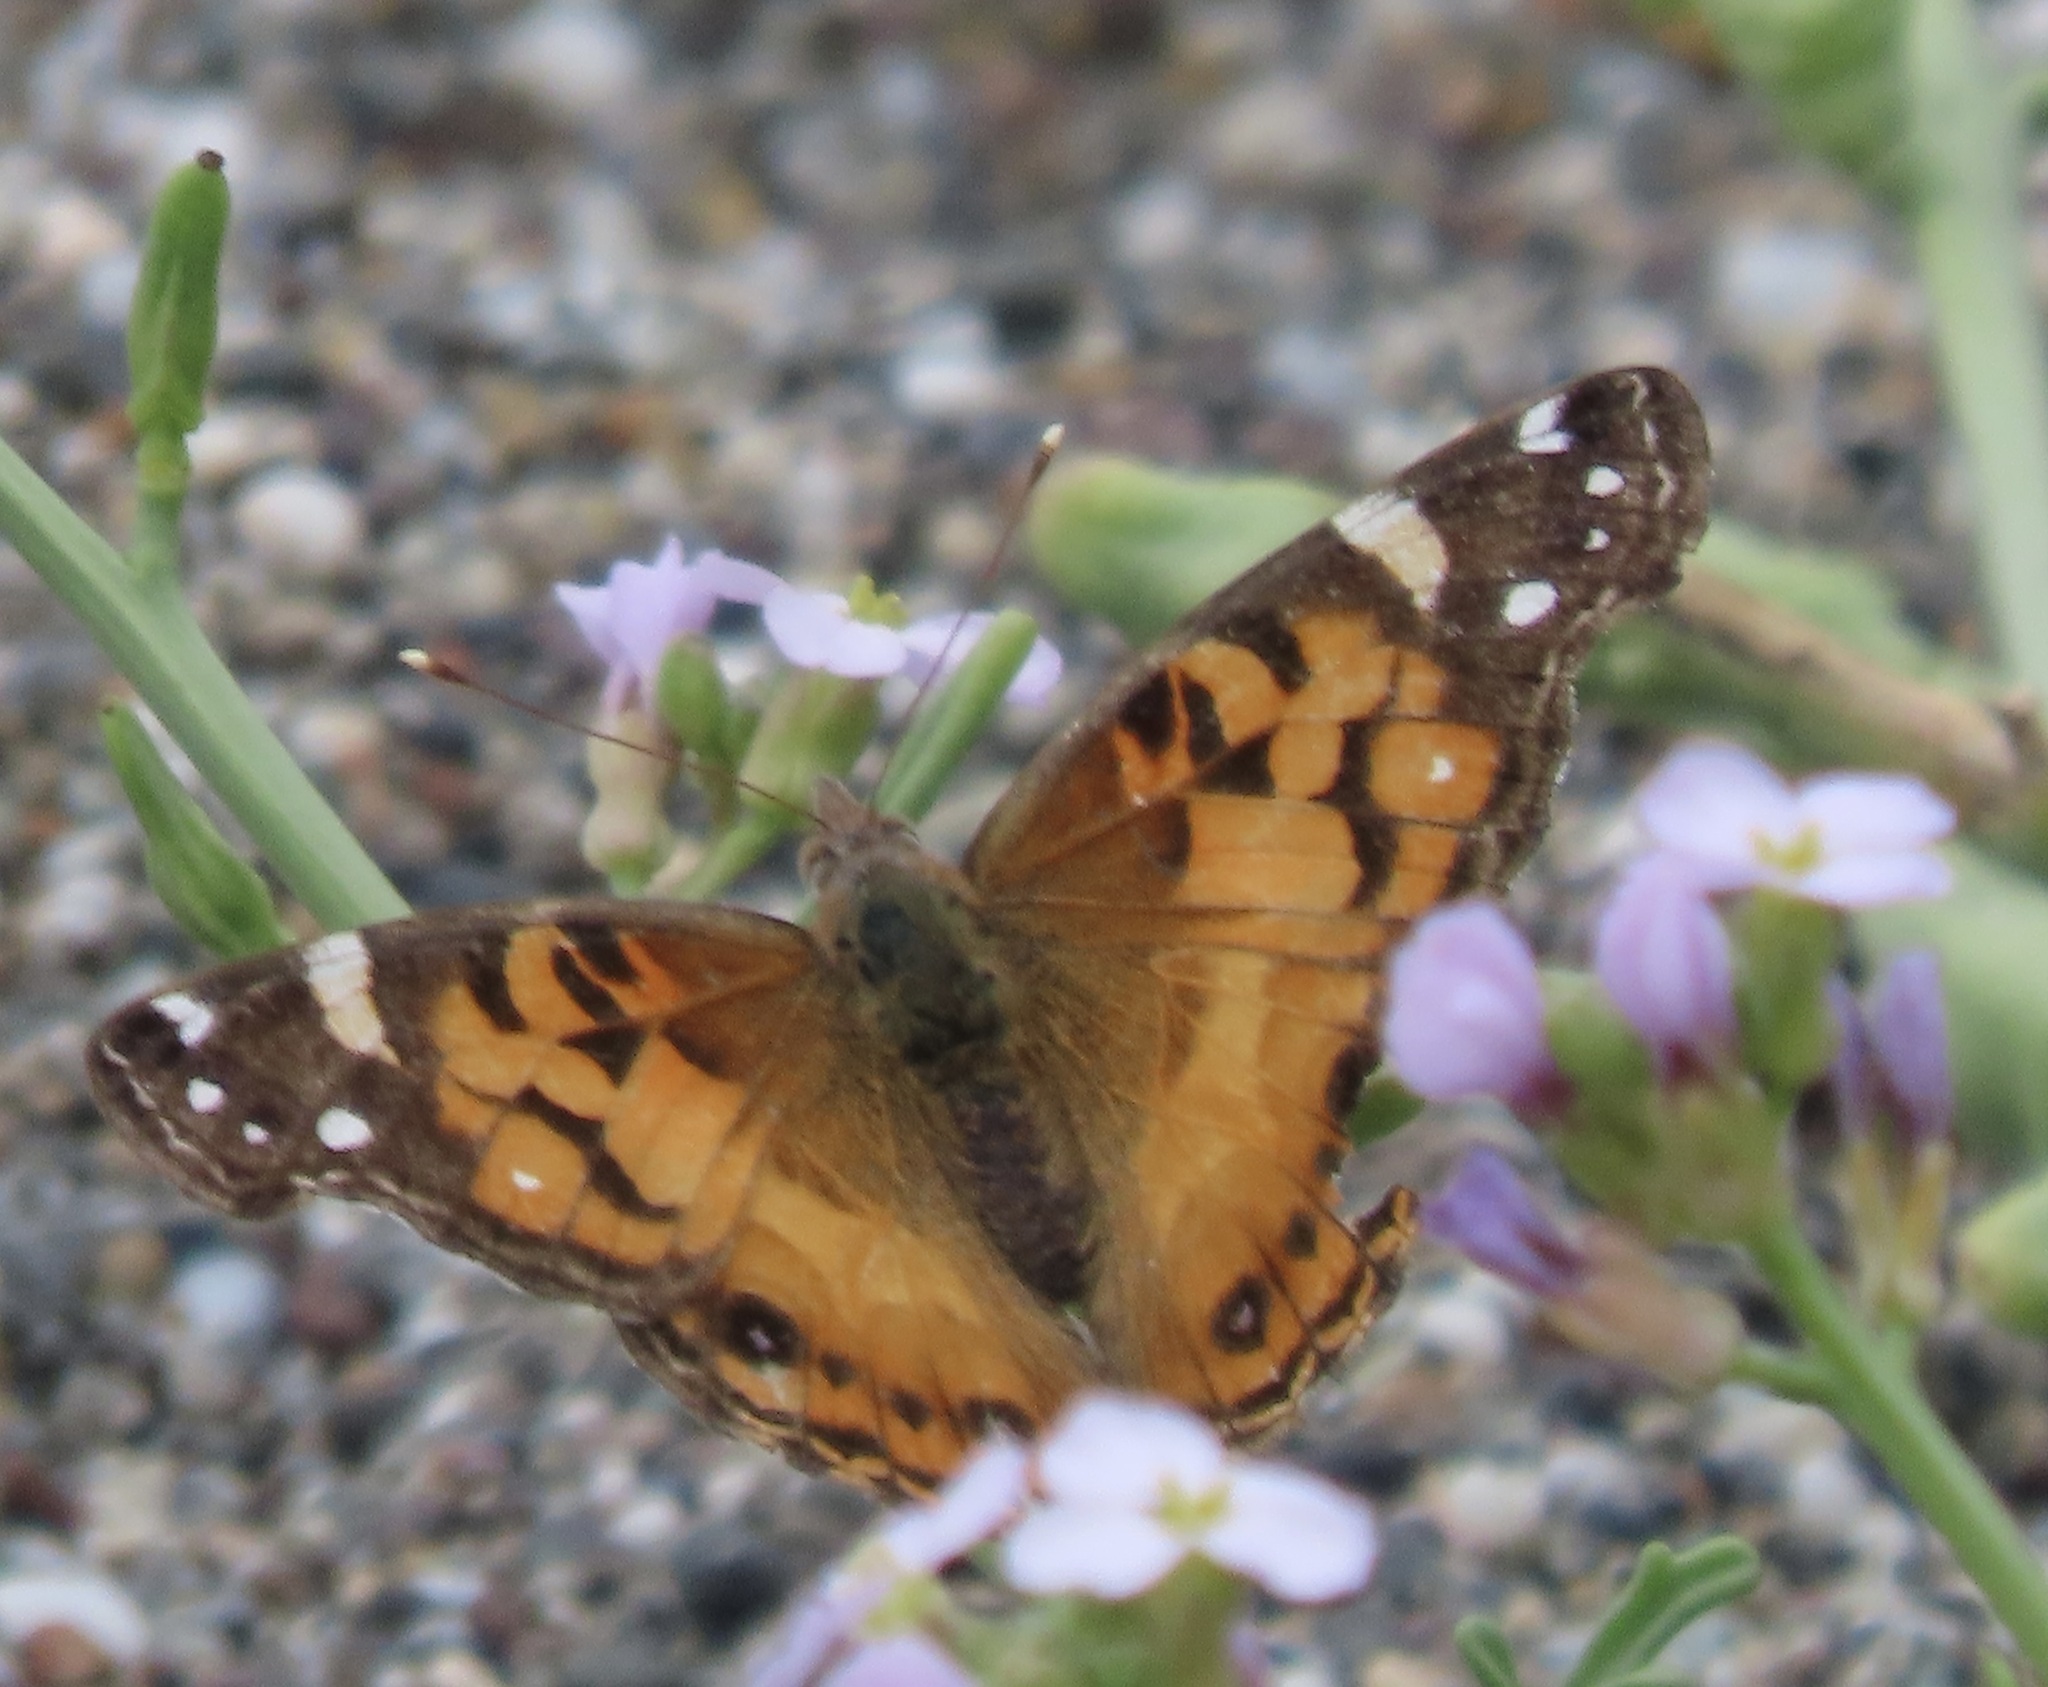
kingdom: Animalia
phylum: Arthropoda
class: Insecta
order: Lepidoptera
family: Nymphalidae
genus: Vanessa
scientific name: Vanessa virginiensis
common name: American lady
